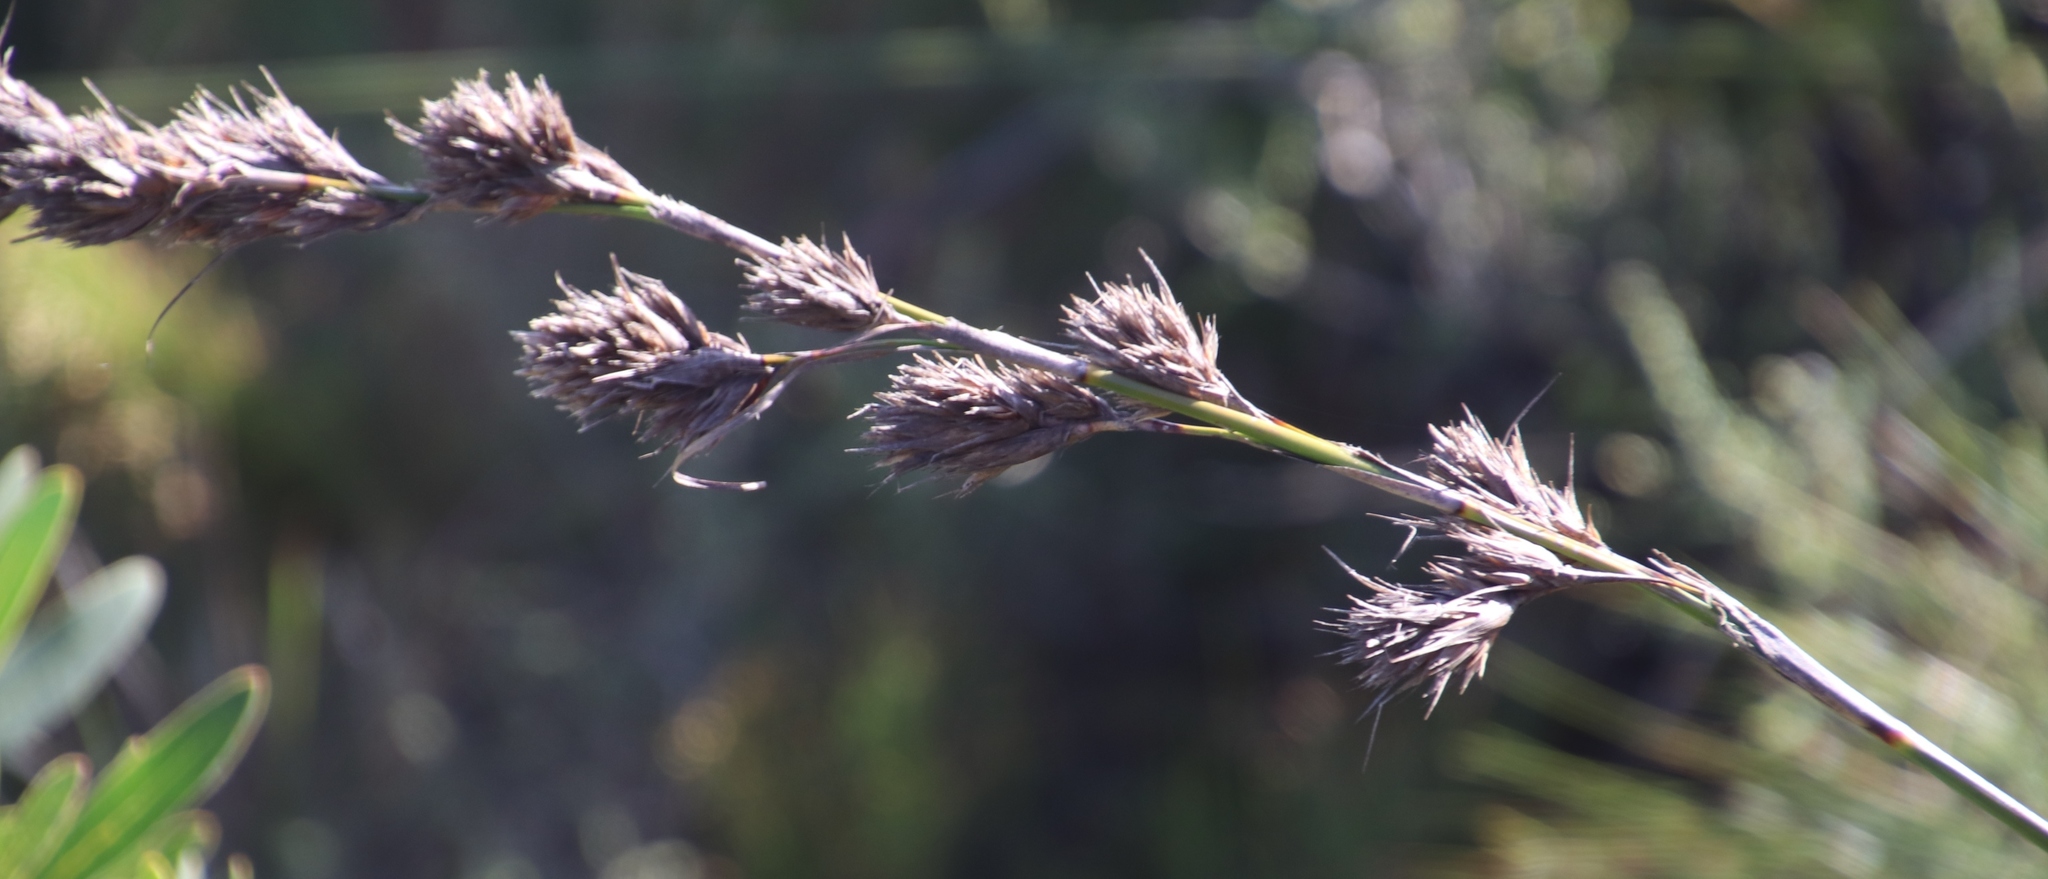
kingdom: Plantae
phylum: Tracheophyta
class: Liliopsida
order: Poales
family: Cyperaceae
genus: Tetraria
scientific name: Tetraria bromoides
